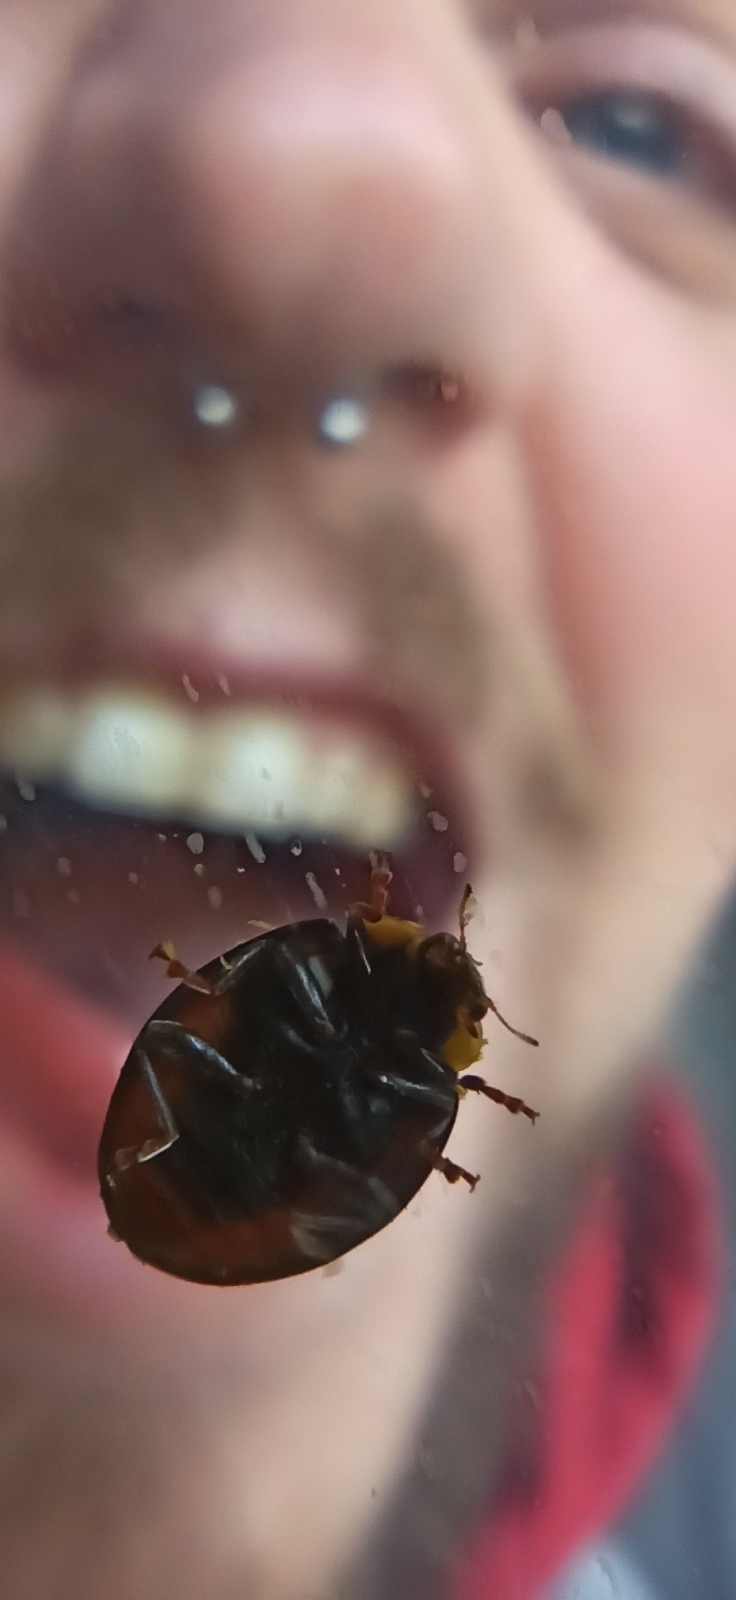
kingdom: Animalia
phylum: Arthropoda
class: Insecta
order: Coleoptera
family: Coccinellidae
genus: Harmonia
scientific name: Harmonia axyridis
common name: Harlequin ladybird
